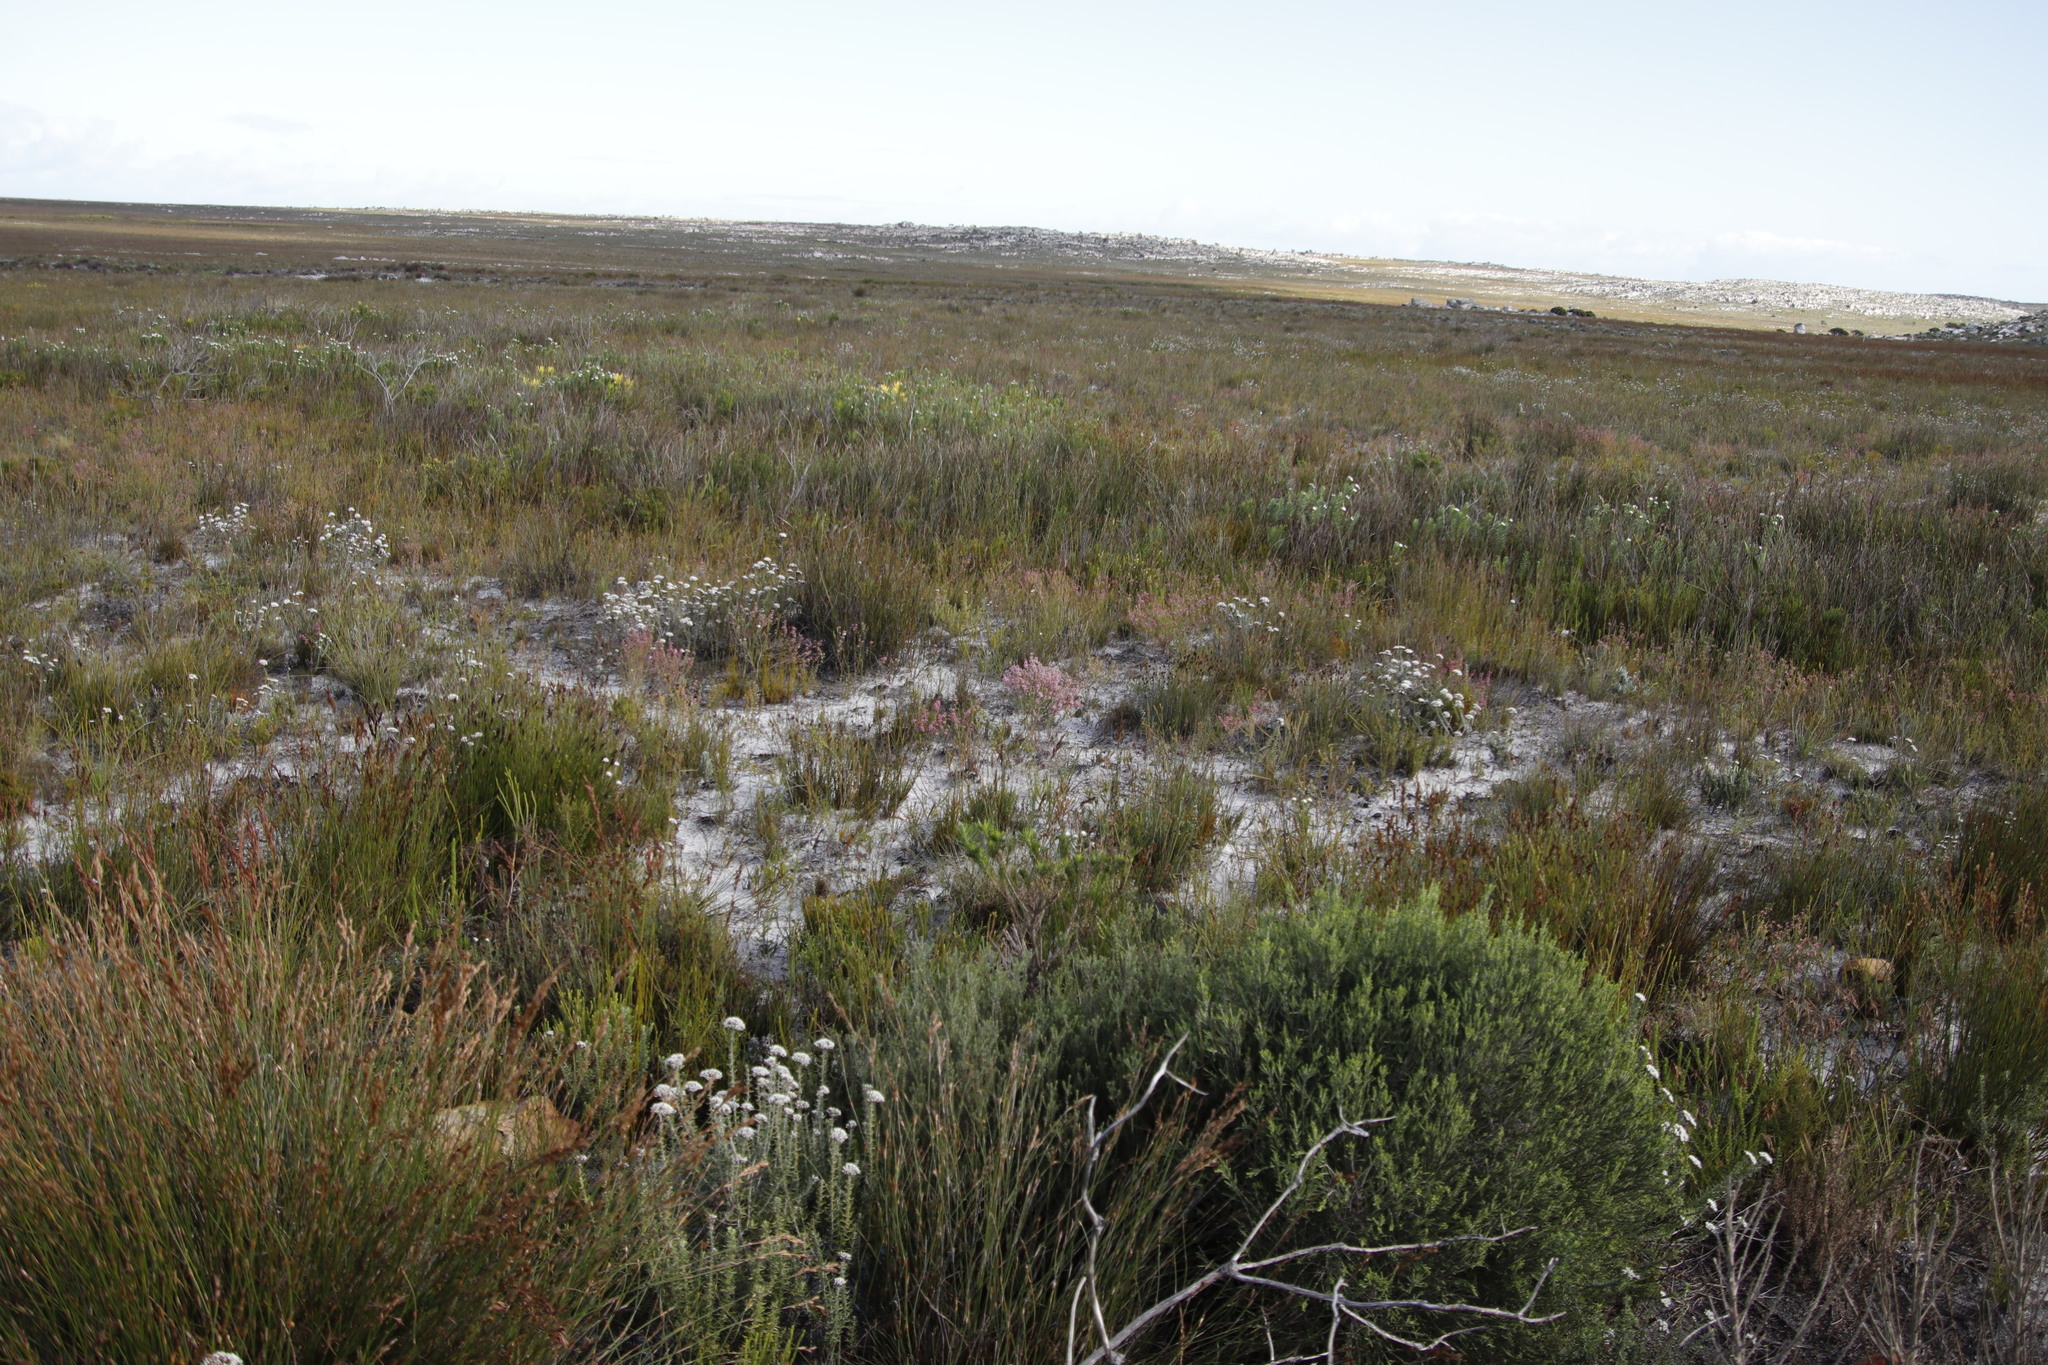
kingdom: Plantae
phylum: Tracheophyta
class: Magnoliopsida
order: Ericales
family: Ericaceae
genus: Erica
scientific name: Erica corifolia
